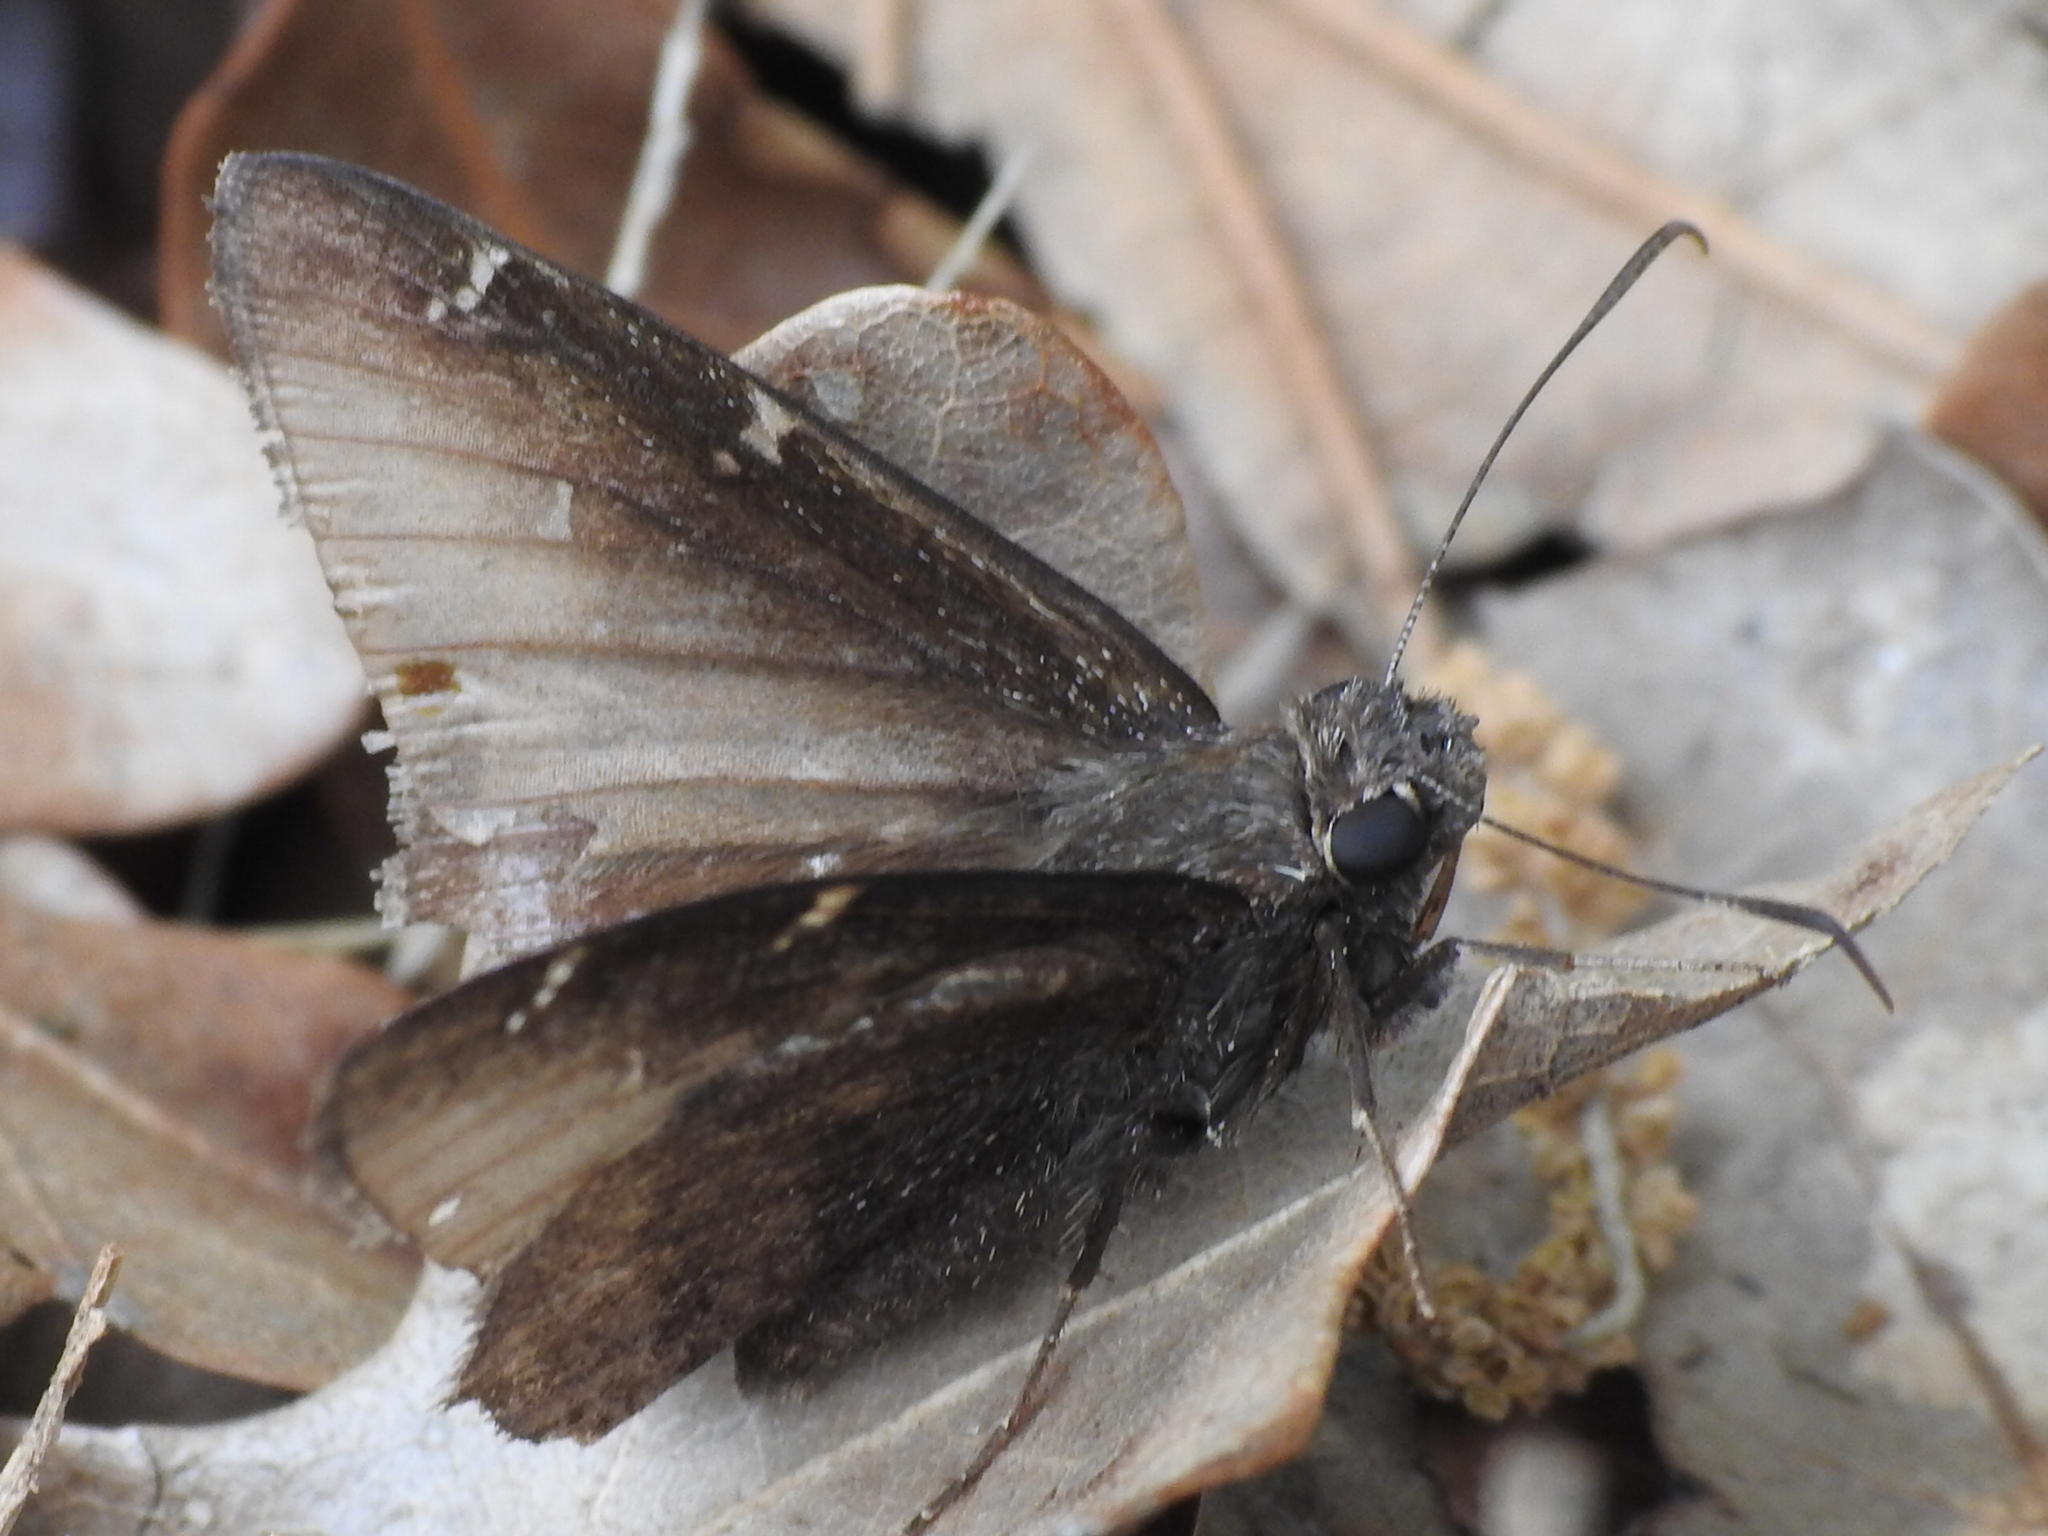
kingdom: Animalia
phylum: Arthropoda
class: Insecta
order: Lepidoptera
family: Hesperiidae
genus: Thorybes
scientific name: Thorybes pylades
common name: Northern cloudywing
